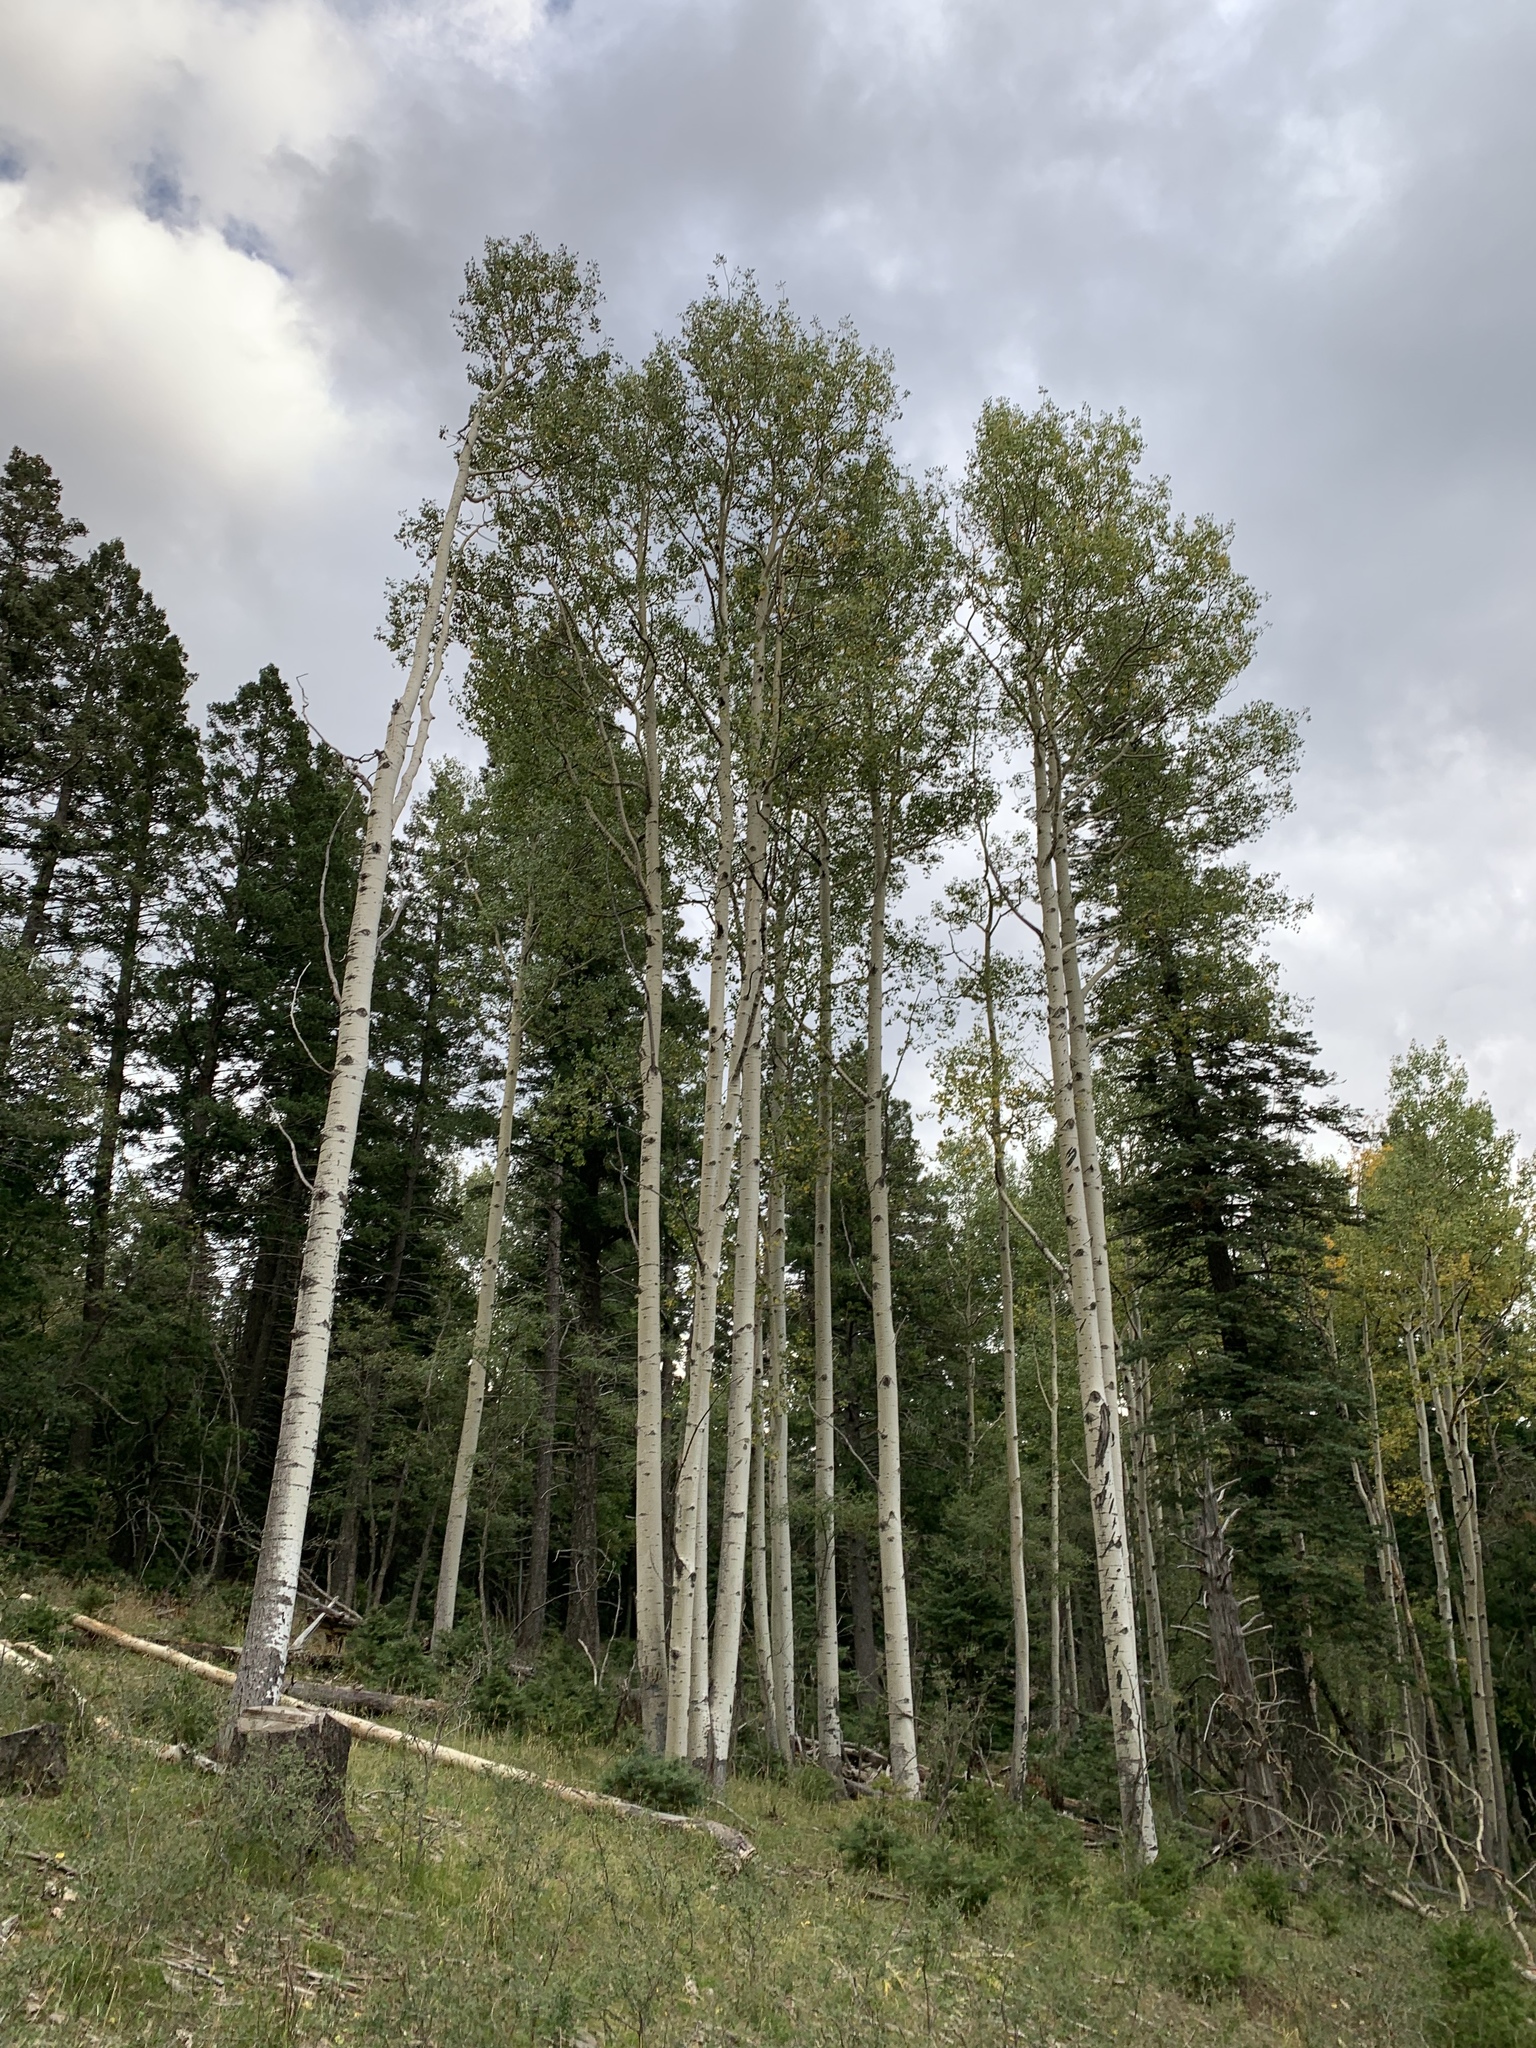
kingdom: Plantae
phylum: Tracheophyta
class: Magnoliopsida
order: Malpighiales
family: Salicaceae
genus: Populus
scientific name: Populus tremuloides
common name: Quaking aspen
